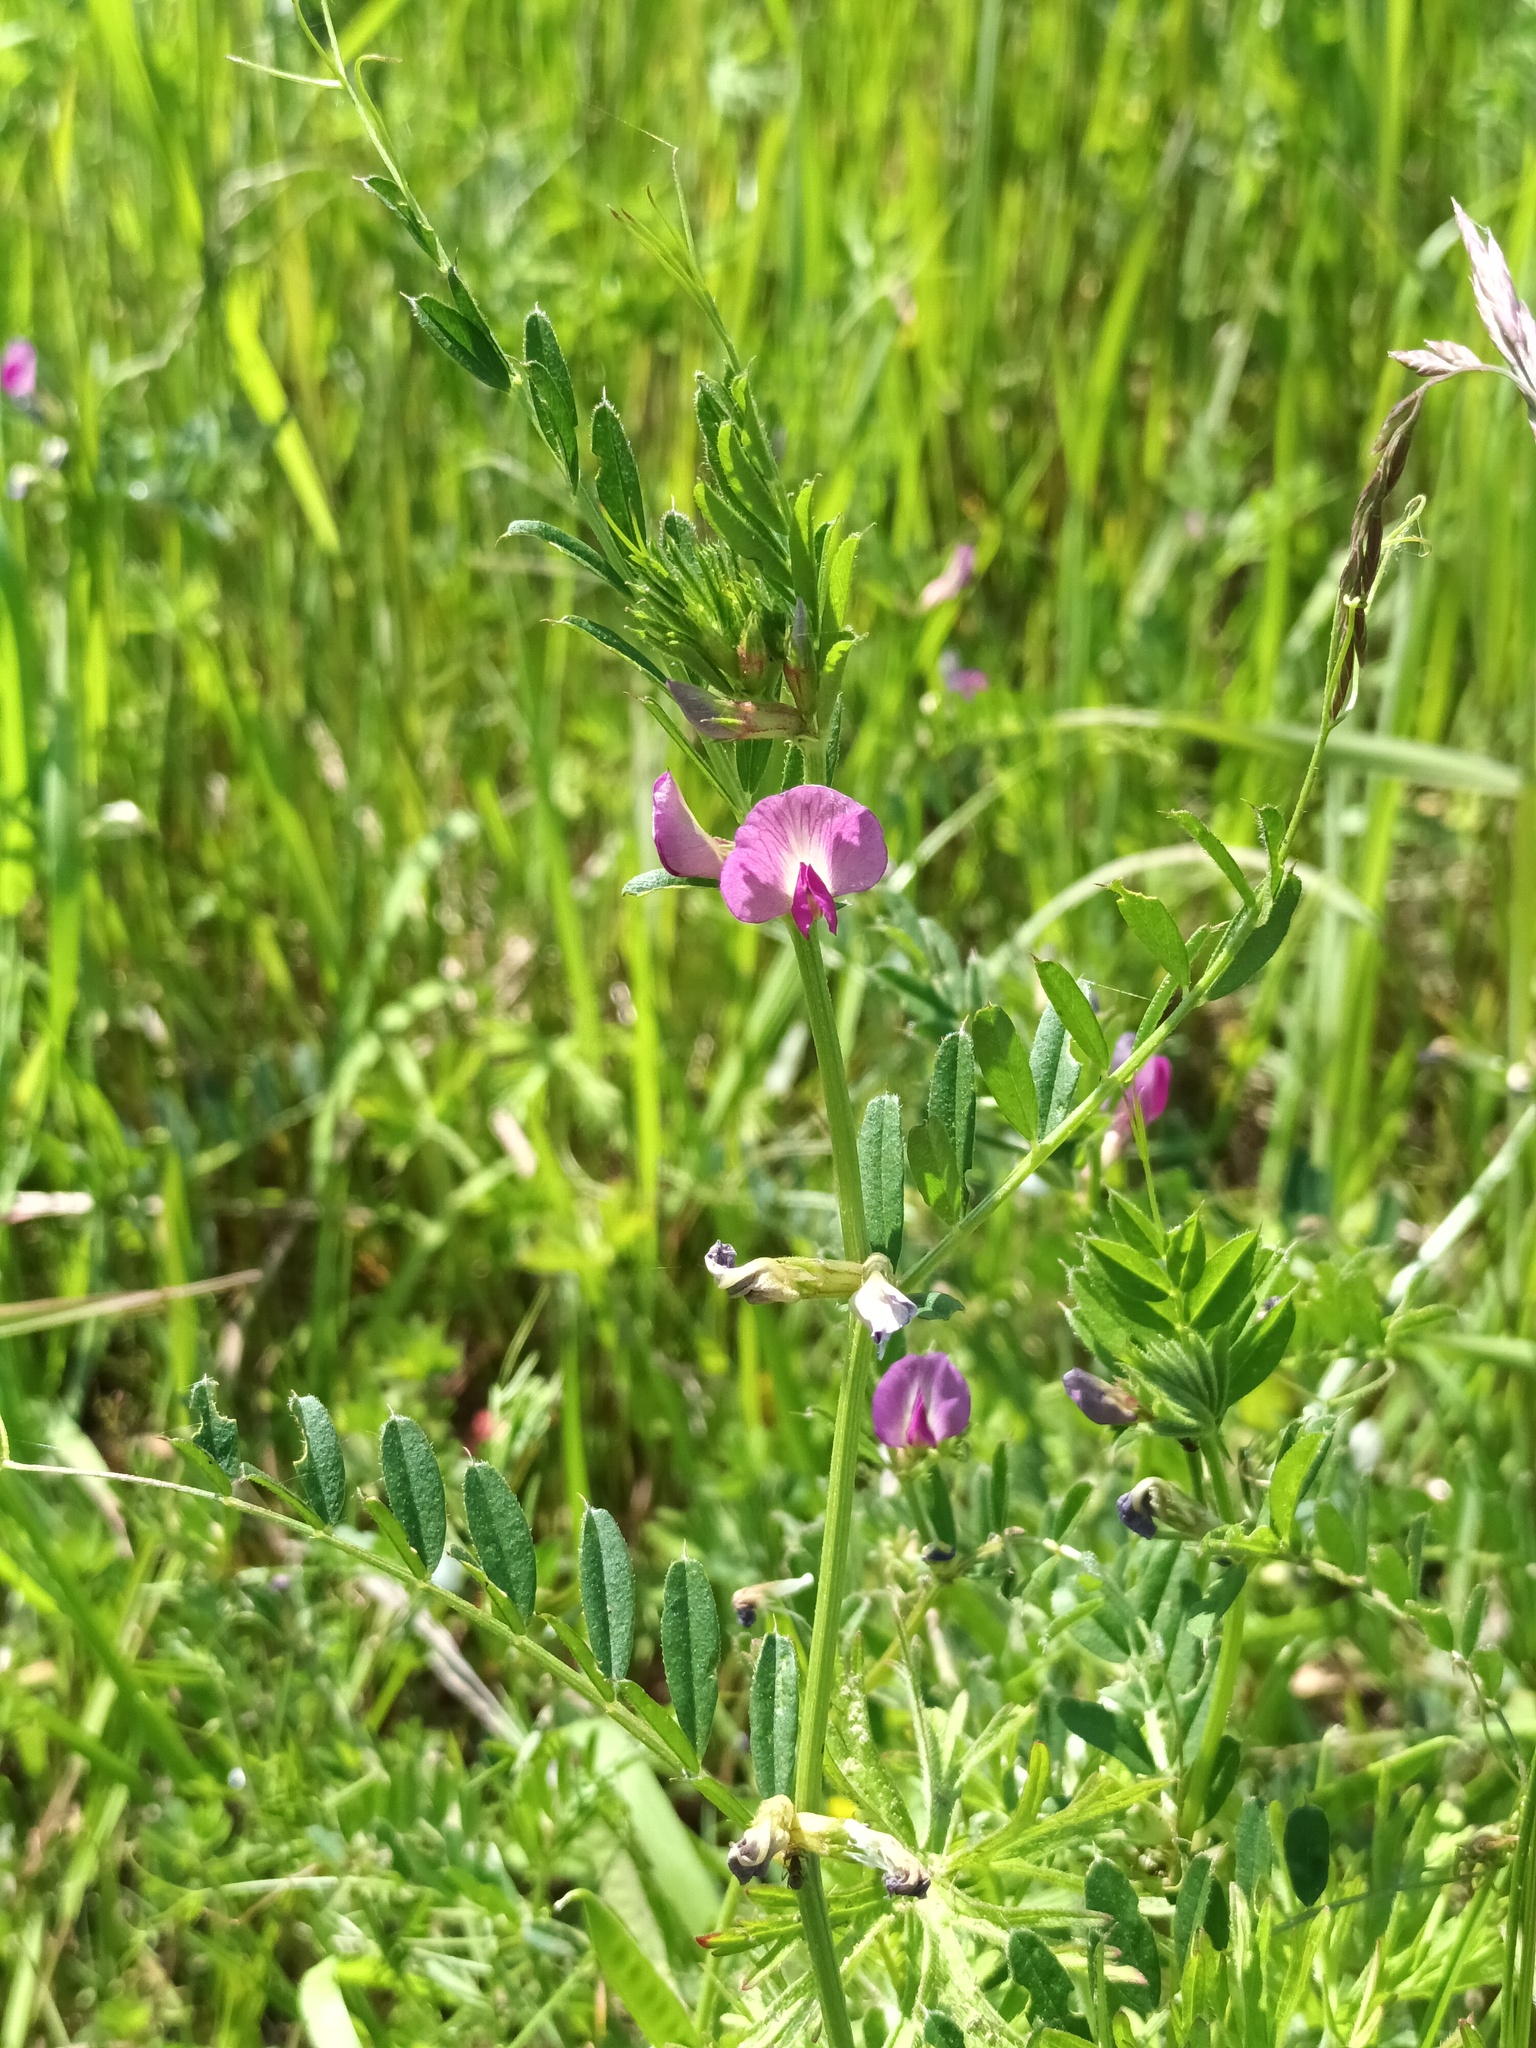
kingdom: Plantae
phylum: Tracheophyta
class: Magnoliopsida
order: Fabales
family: Fabaceae
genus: Vicia
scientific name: Vicia sativa
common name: Garden vetch
